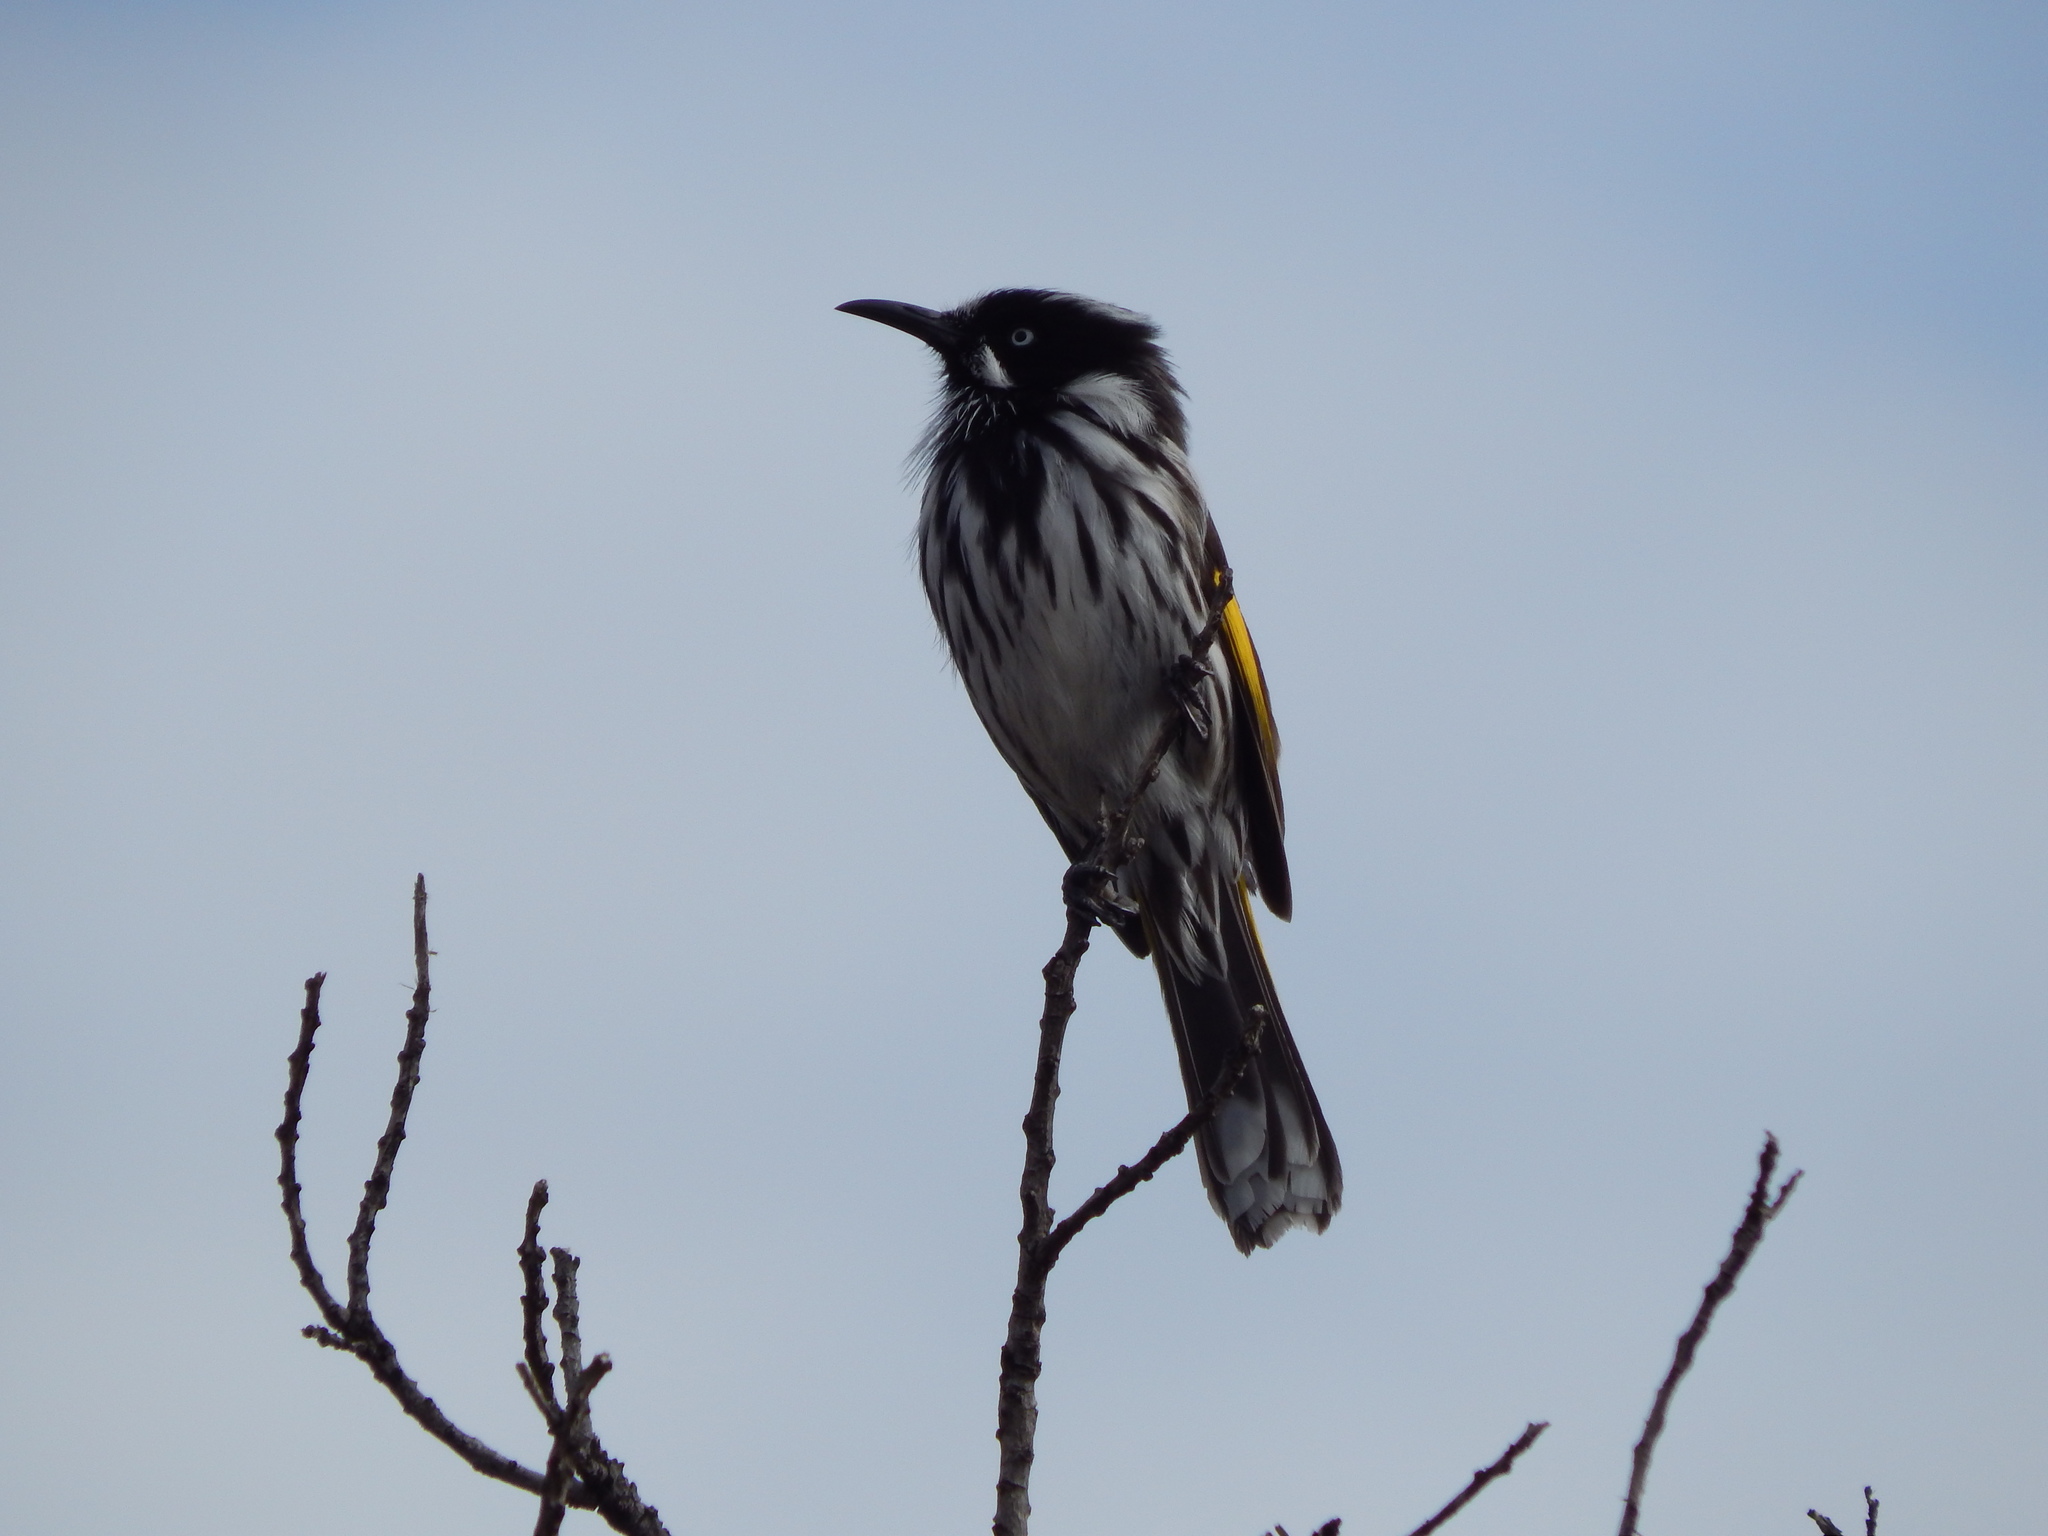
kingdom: Animalia
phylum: Chordata
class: Aves
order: Passeriformes
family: Meliphagidae
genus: Phylidonyris
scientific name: Phylidonyris novaehollandiae
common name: New holland honeyeater
